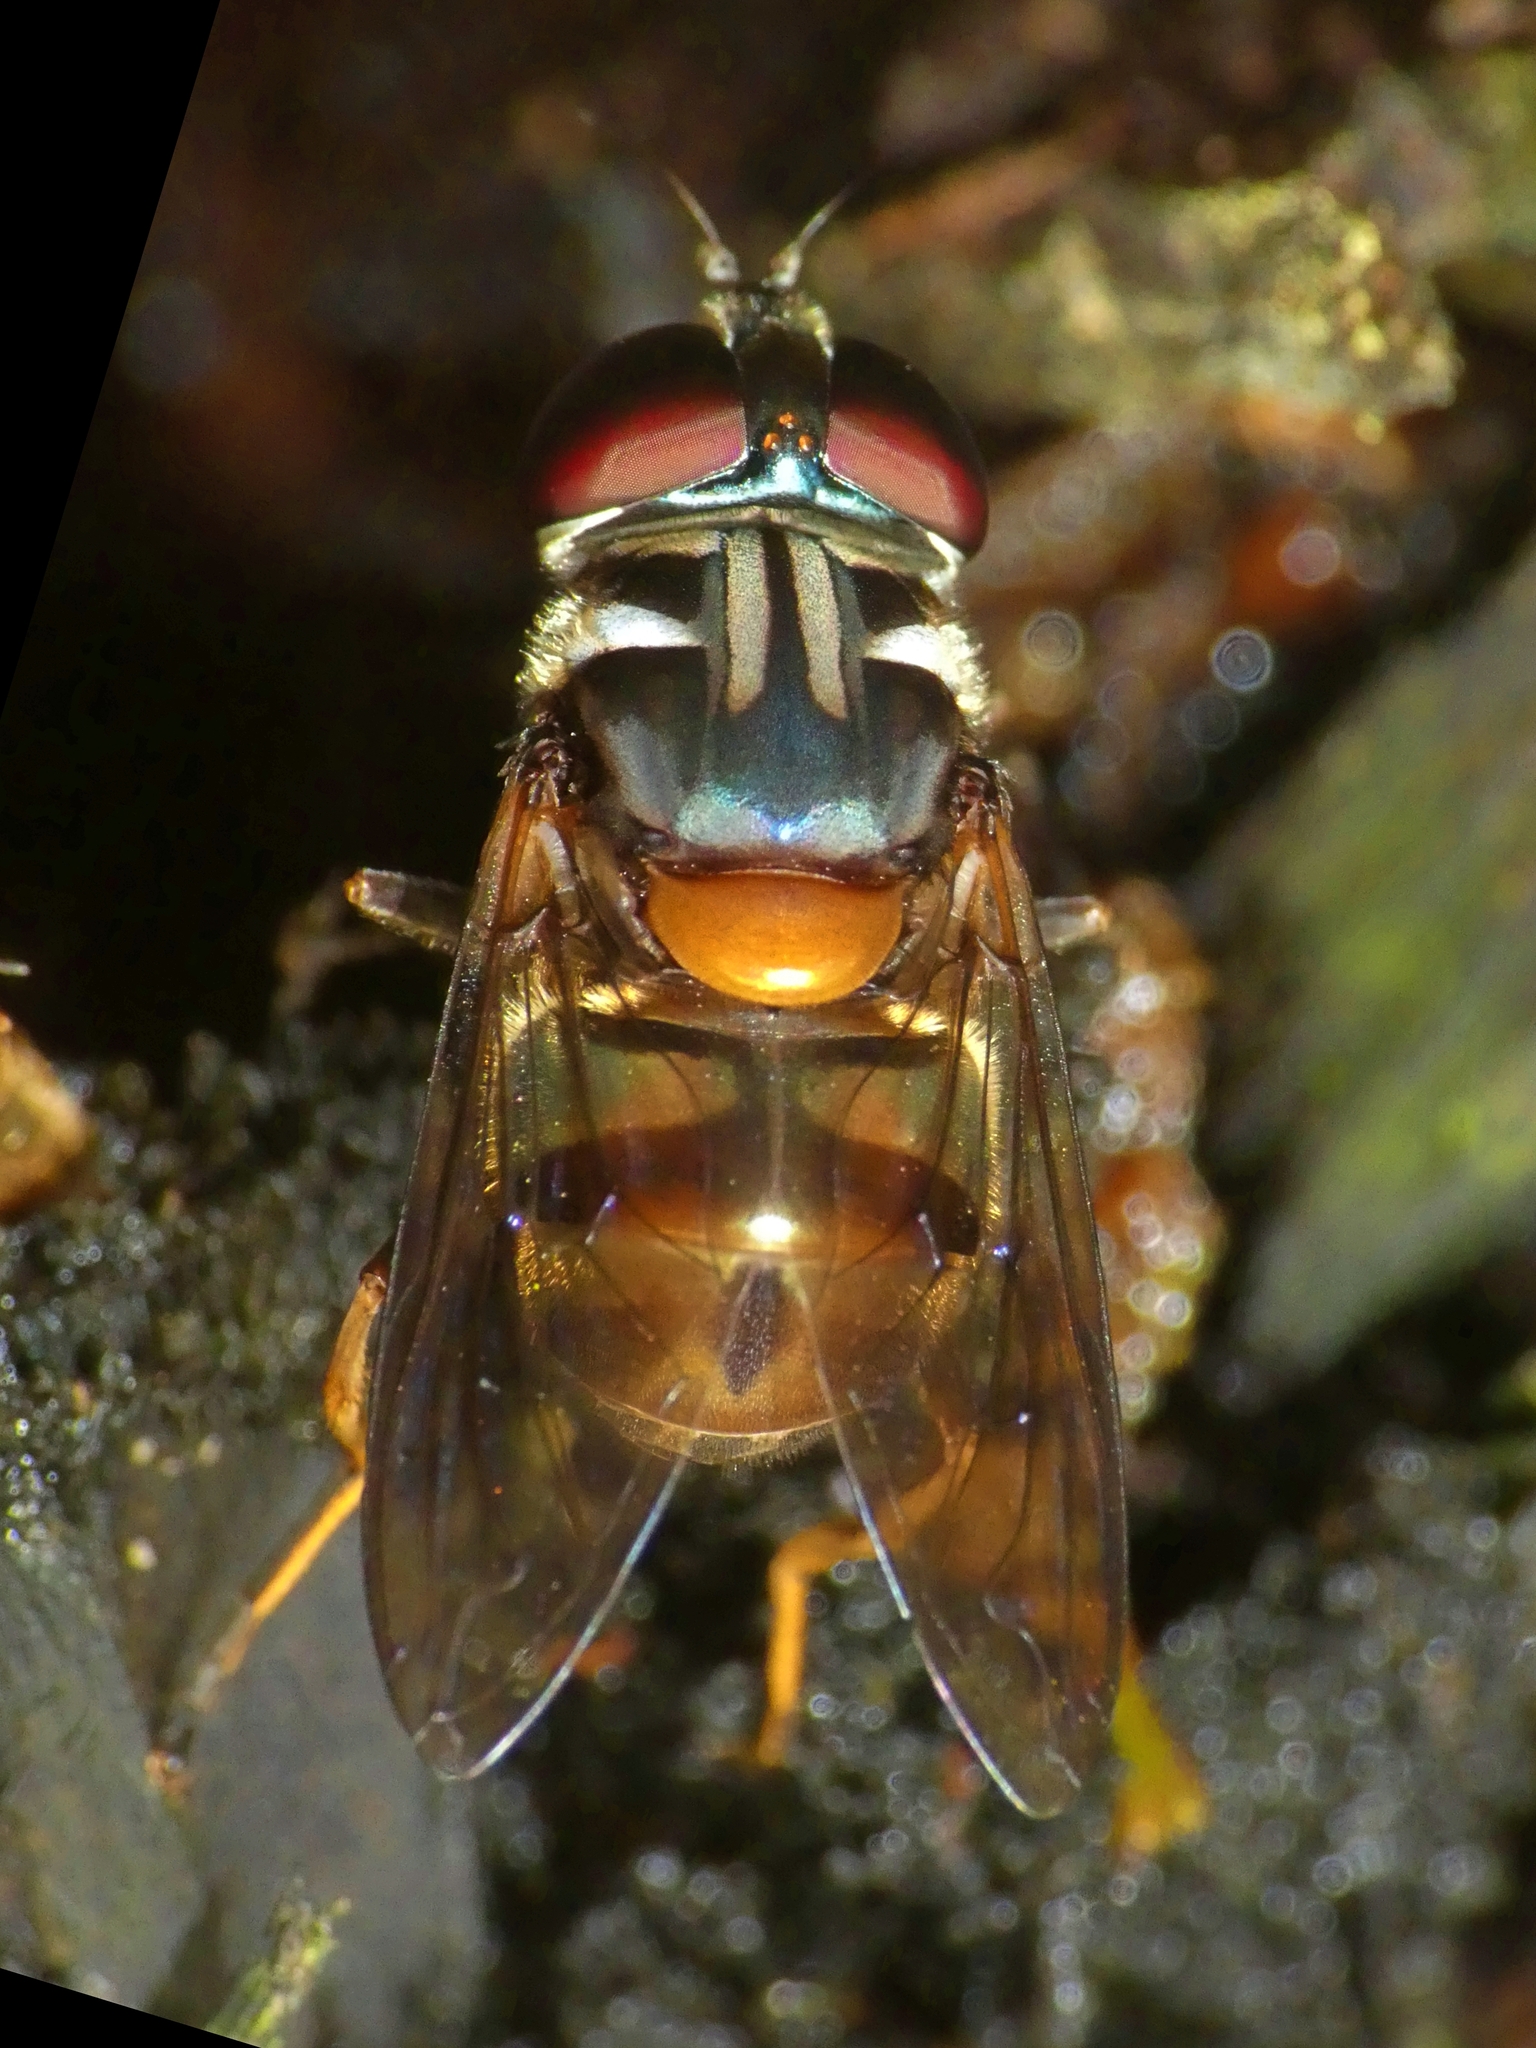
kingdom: Animalia
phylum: Arthropoda
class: Insecta
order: Diptera
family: Syrphidae
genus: Austalis
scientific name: Austalis resoluta
